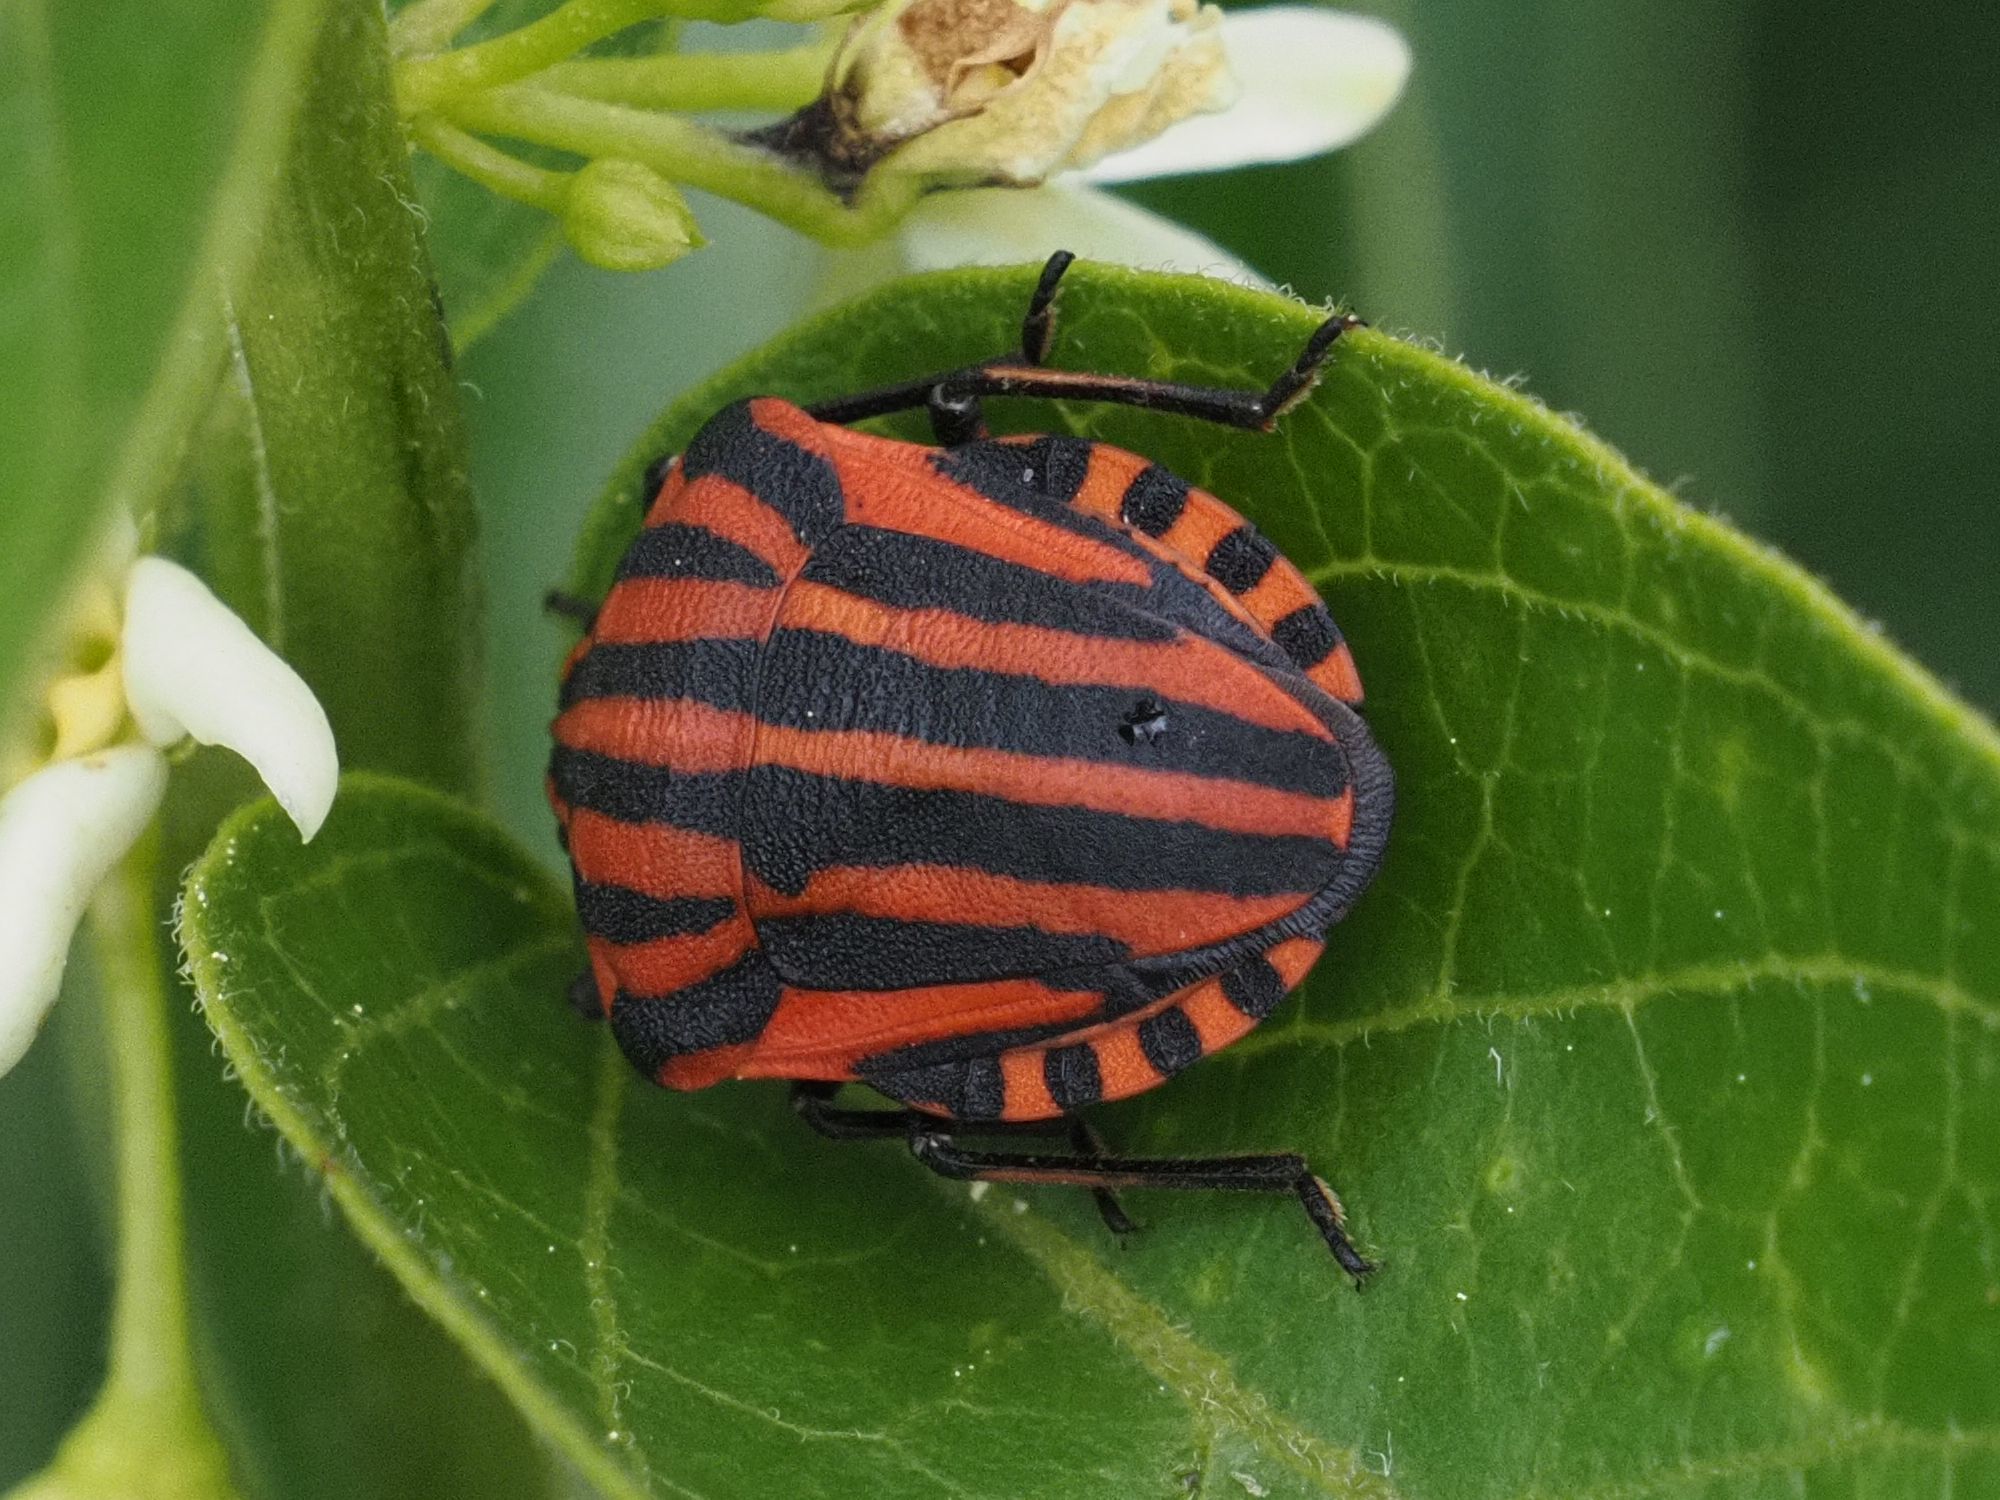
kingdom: Animalia
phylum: Arthropoda
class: Insecta
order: Hemiptera
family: Pentatomidae
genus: Graphosoma
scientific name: Graphosoma italicum
